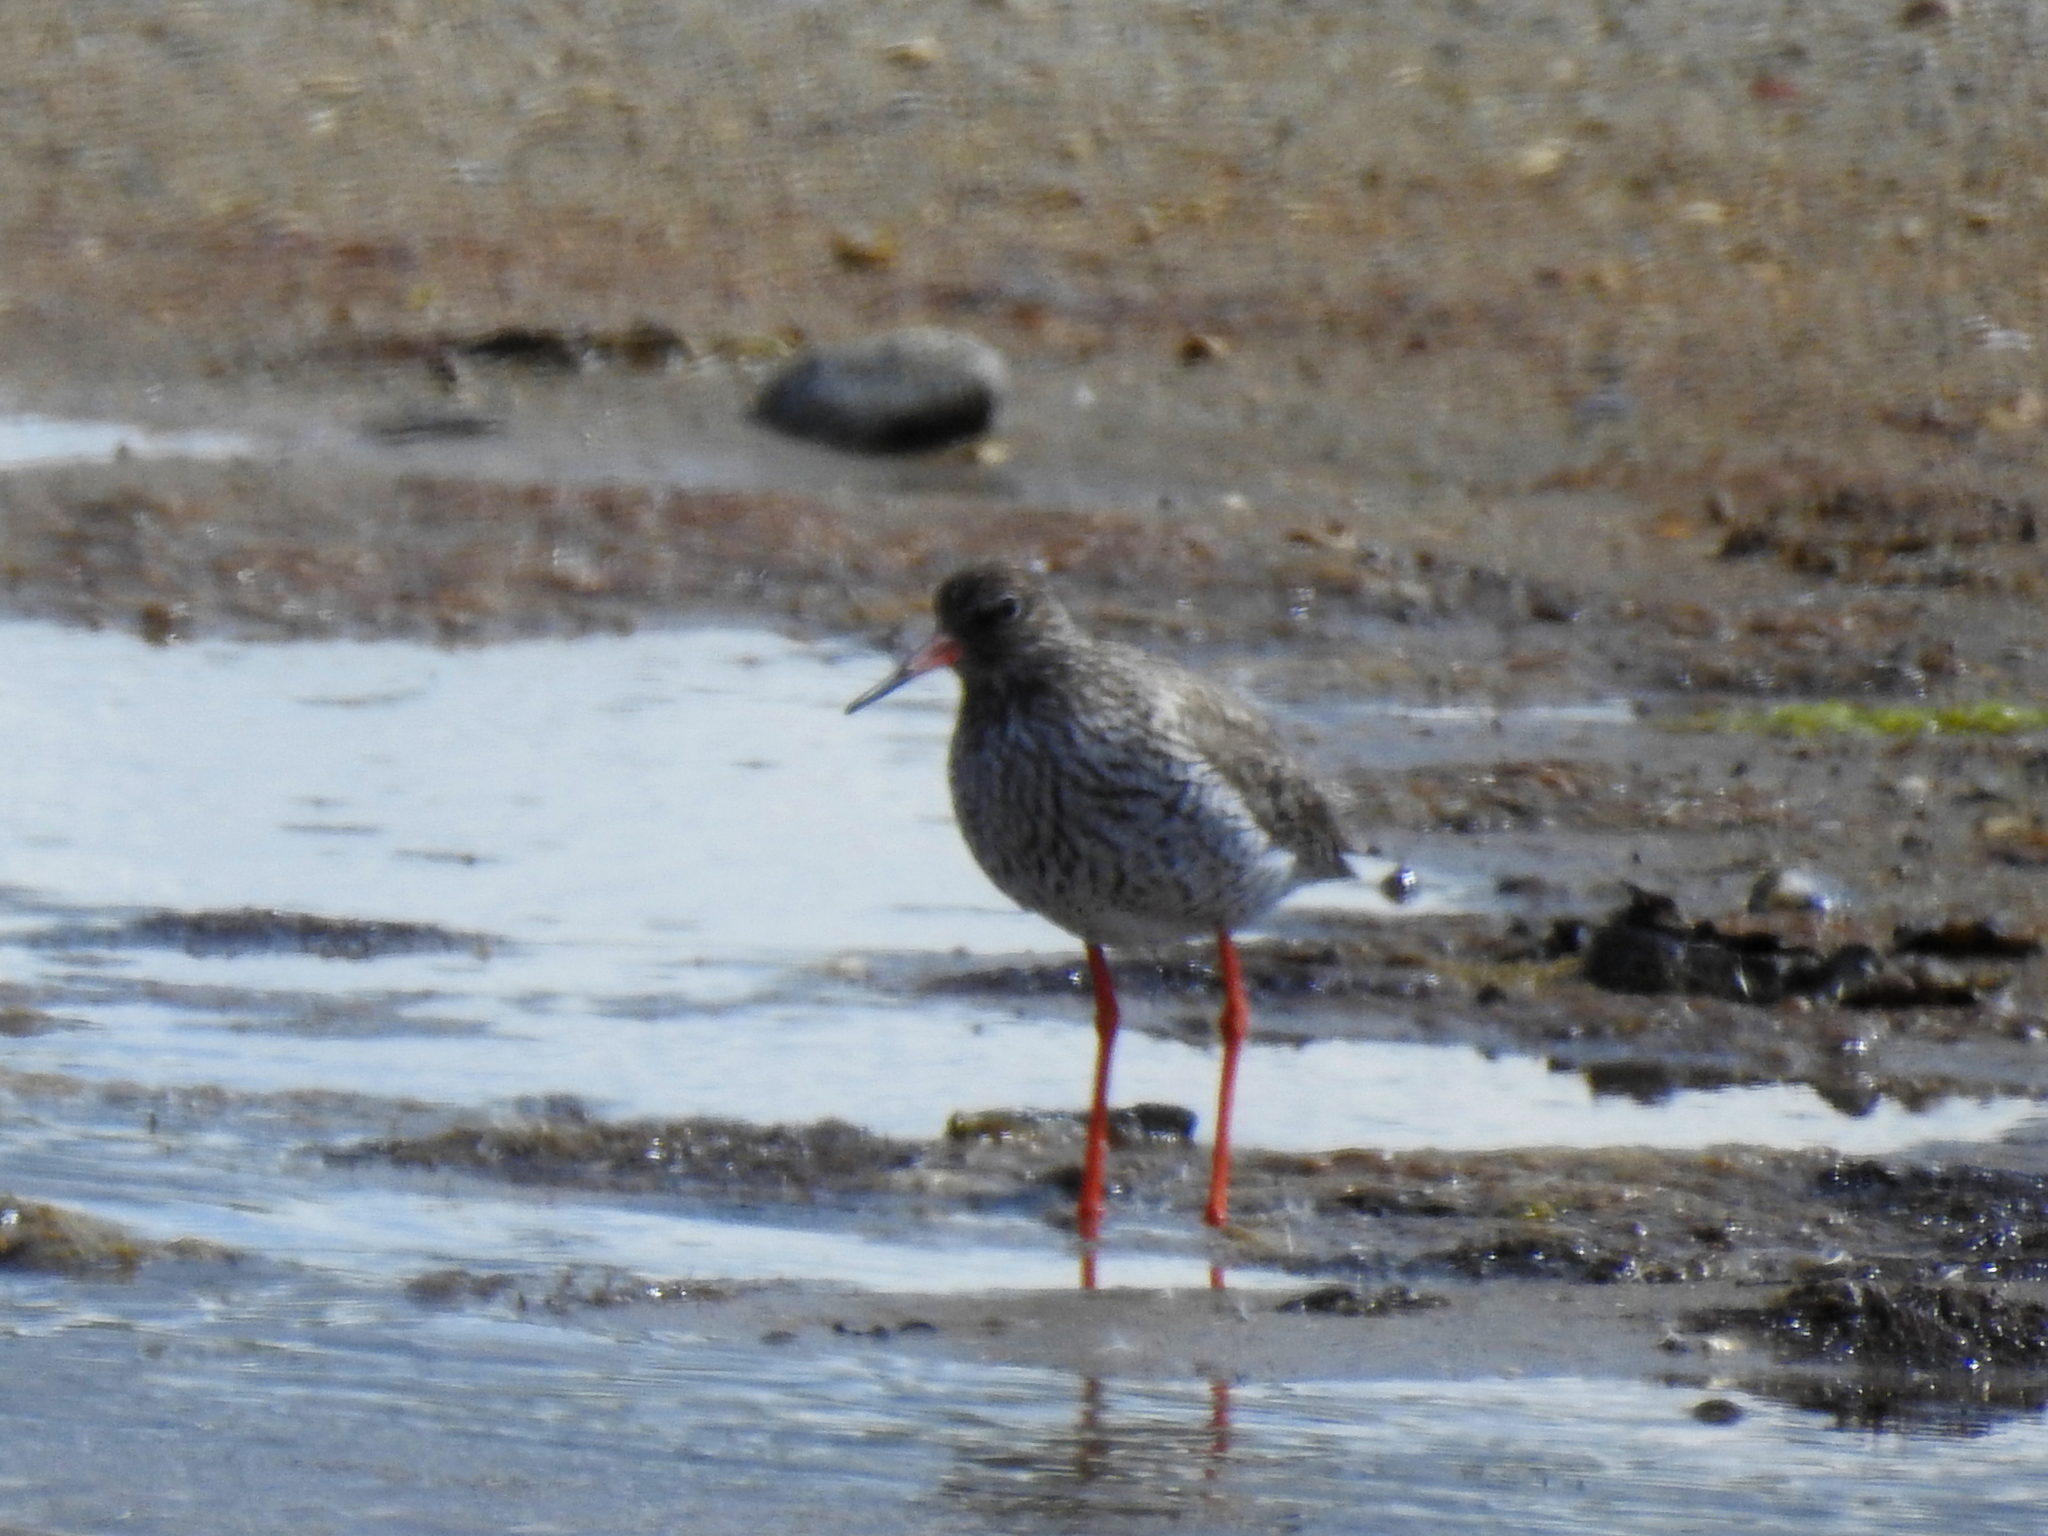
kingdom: Animalia
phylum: Chordata
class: Aves
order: Charadriiformes
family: Scolopacidae
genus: Tringa
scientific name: Tringa totanus
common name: Common redshank
